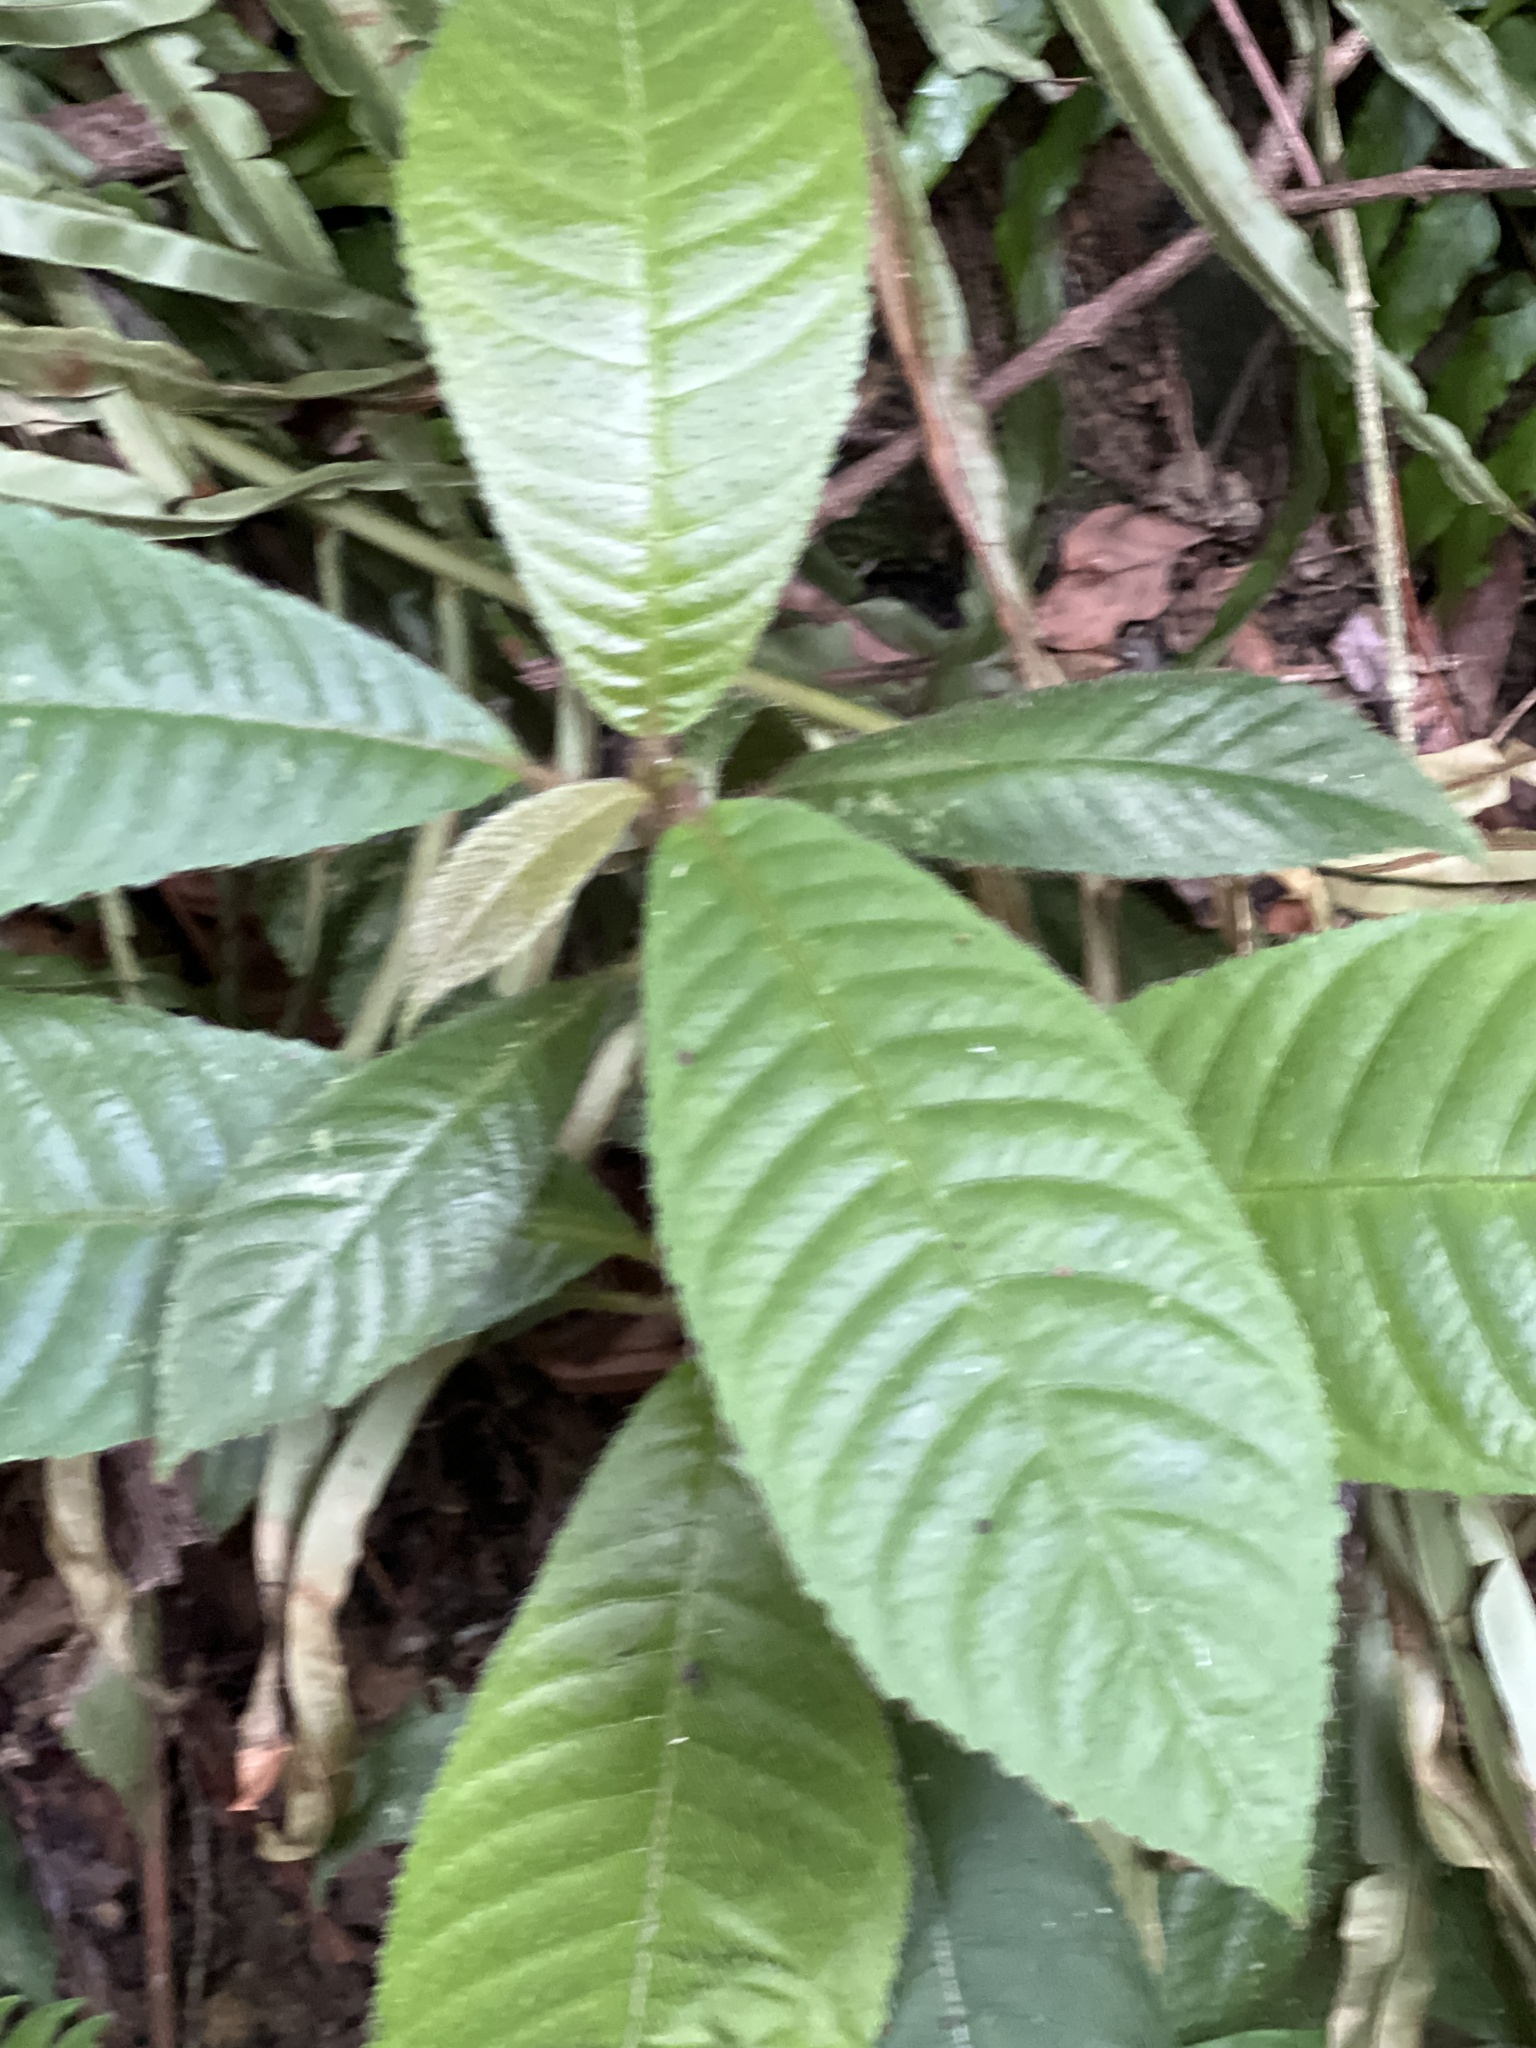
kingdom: Plantae
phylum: Tracheophyta
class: Magnoliopsida
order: Ericales
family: Actinidiaceae
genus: Saurauia
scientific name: Saurauia tristyla
